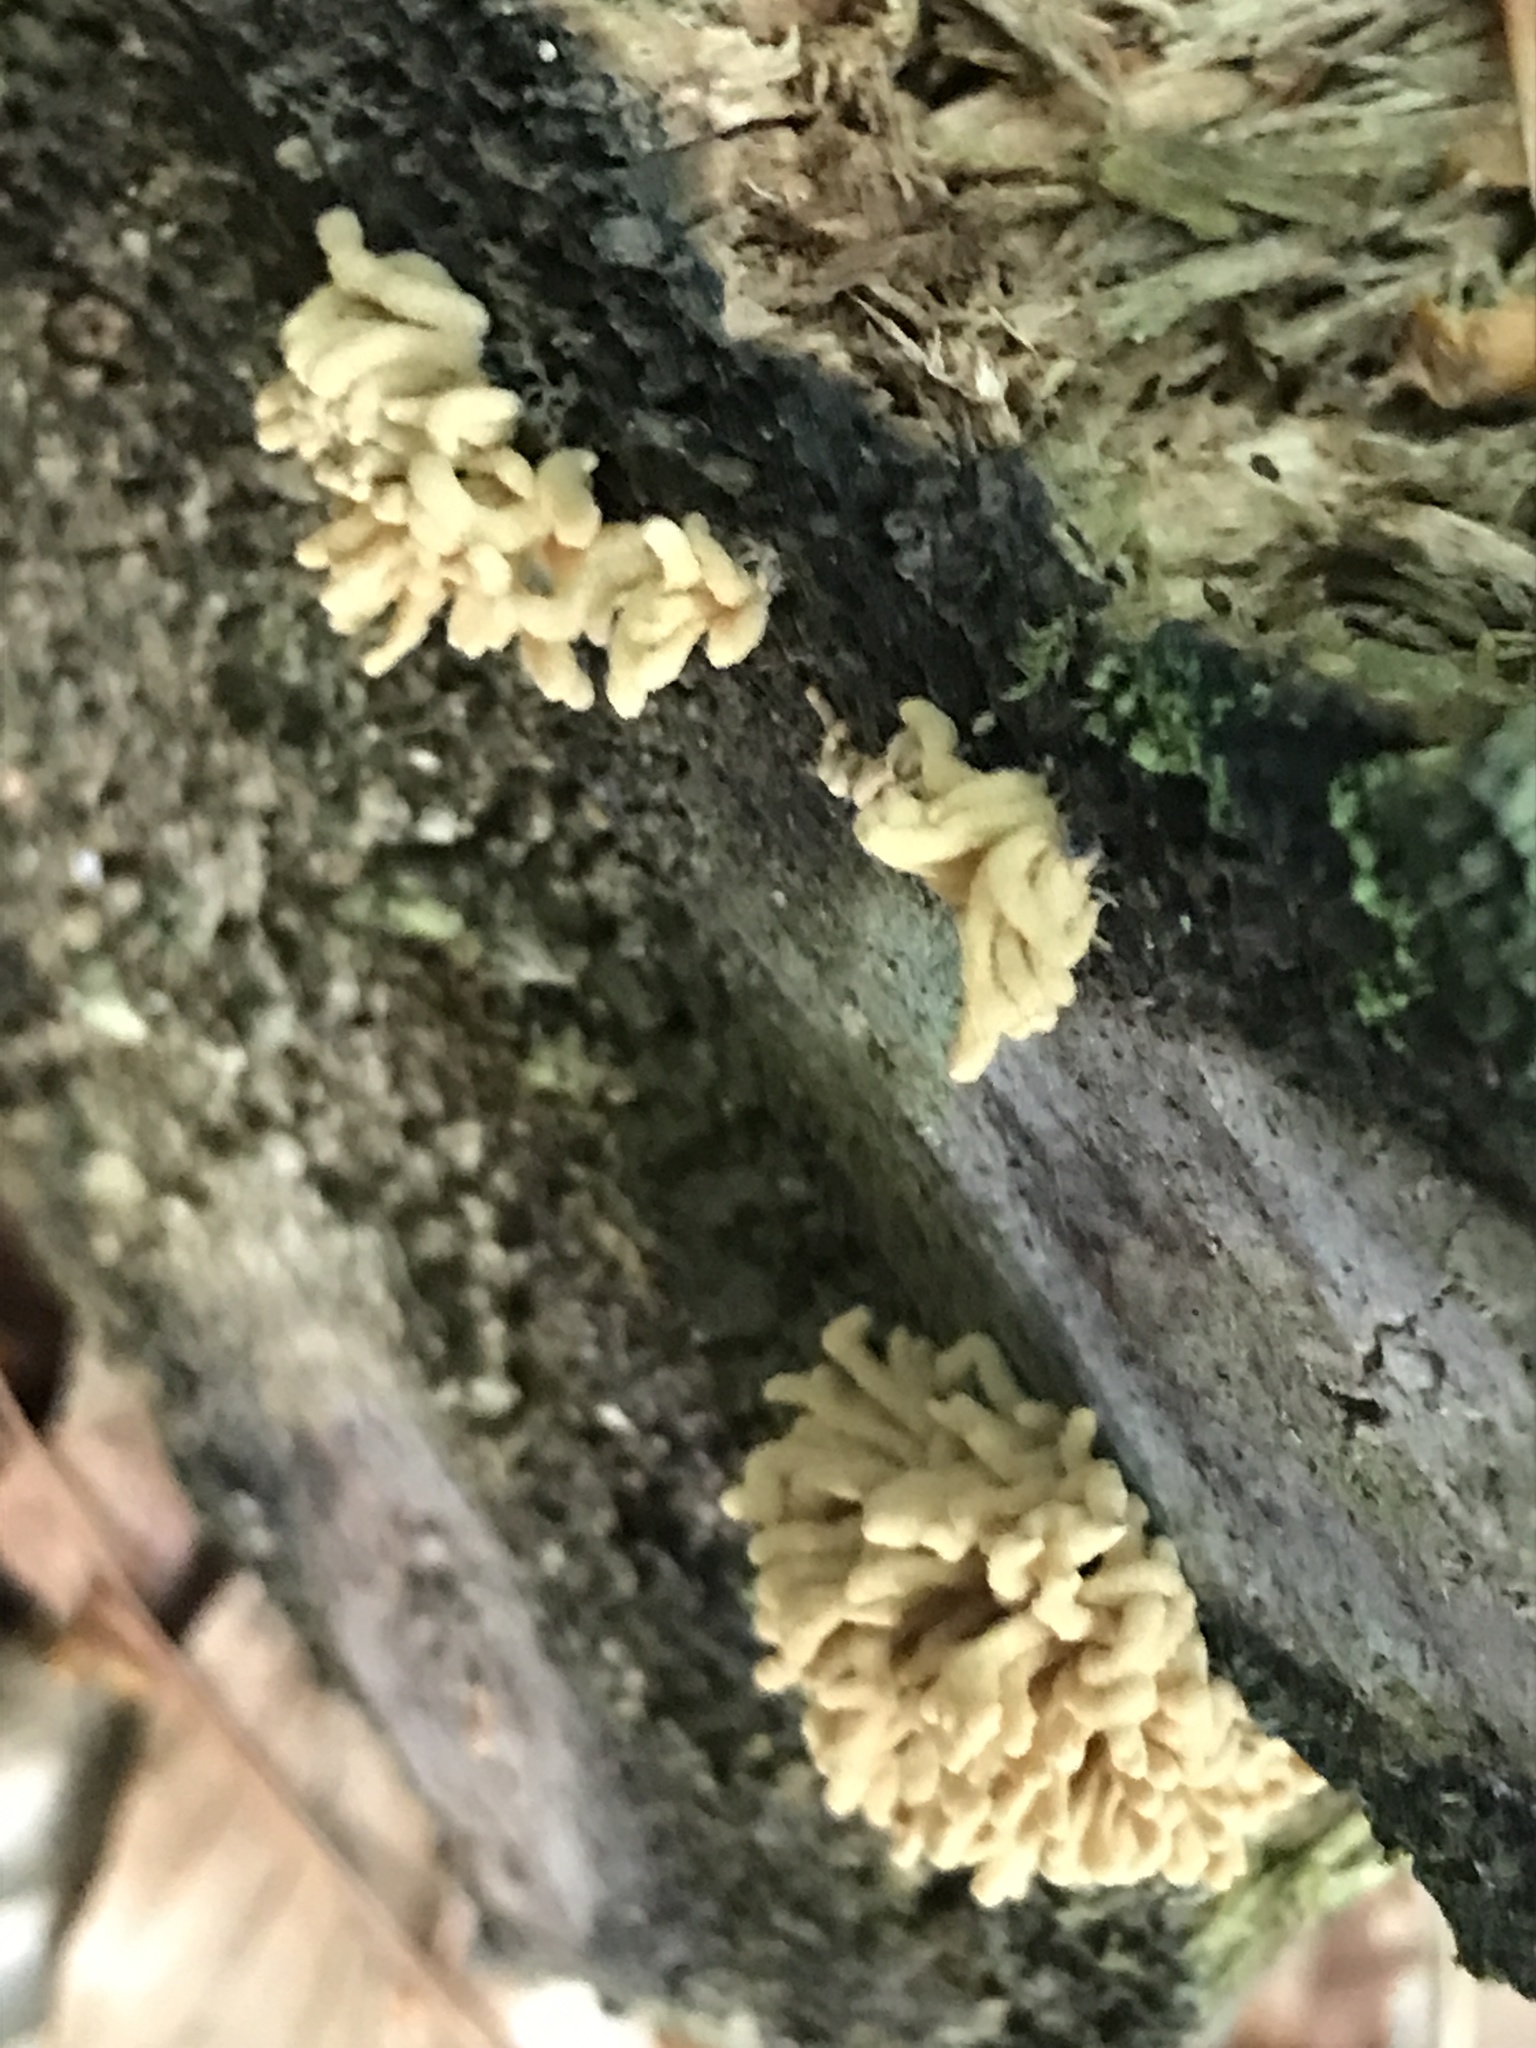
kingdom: Protozoa
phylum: Mycetozoa
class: Myxomycetes
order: Trichiales
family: Arcyriaceae
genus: Arcyria
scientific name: Arcyria obvelata
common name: Yellow carnival candy slime
